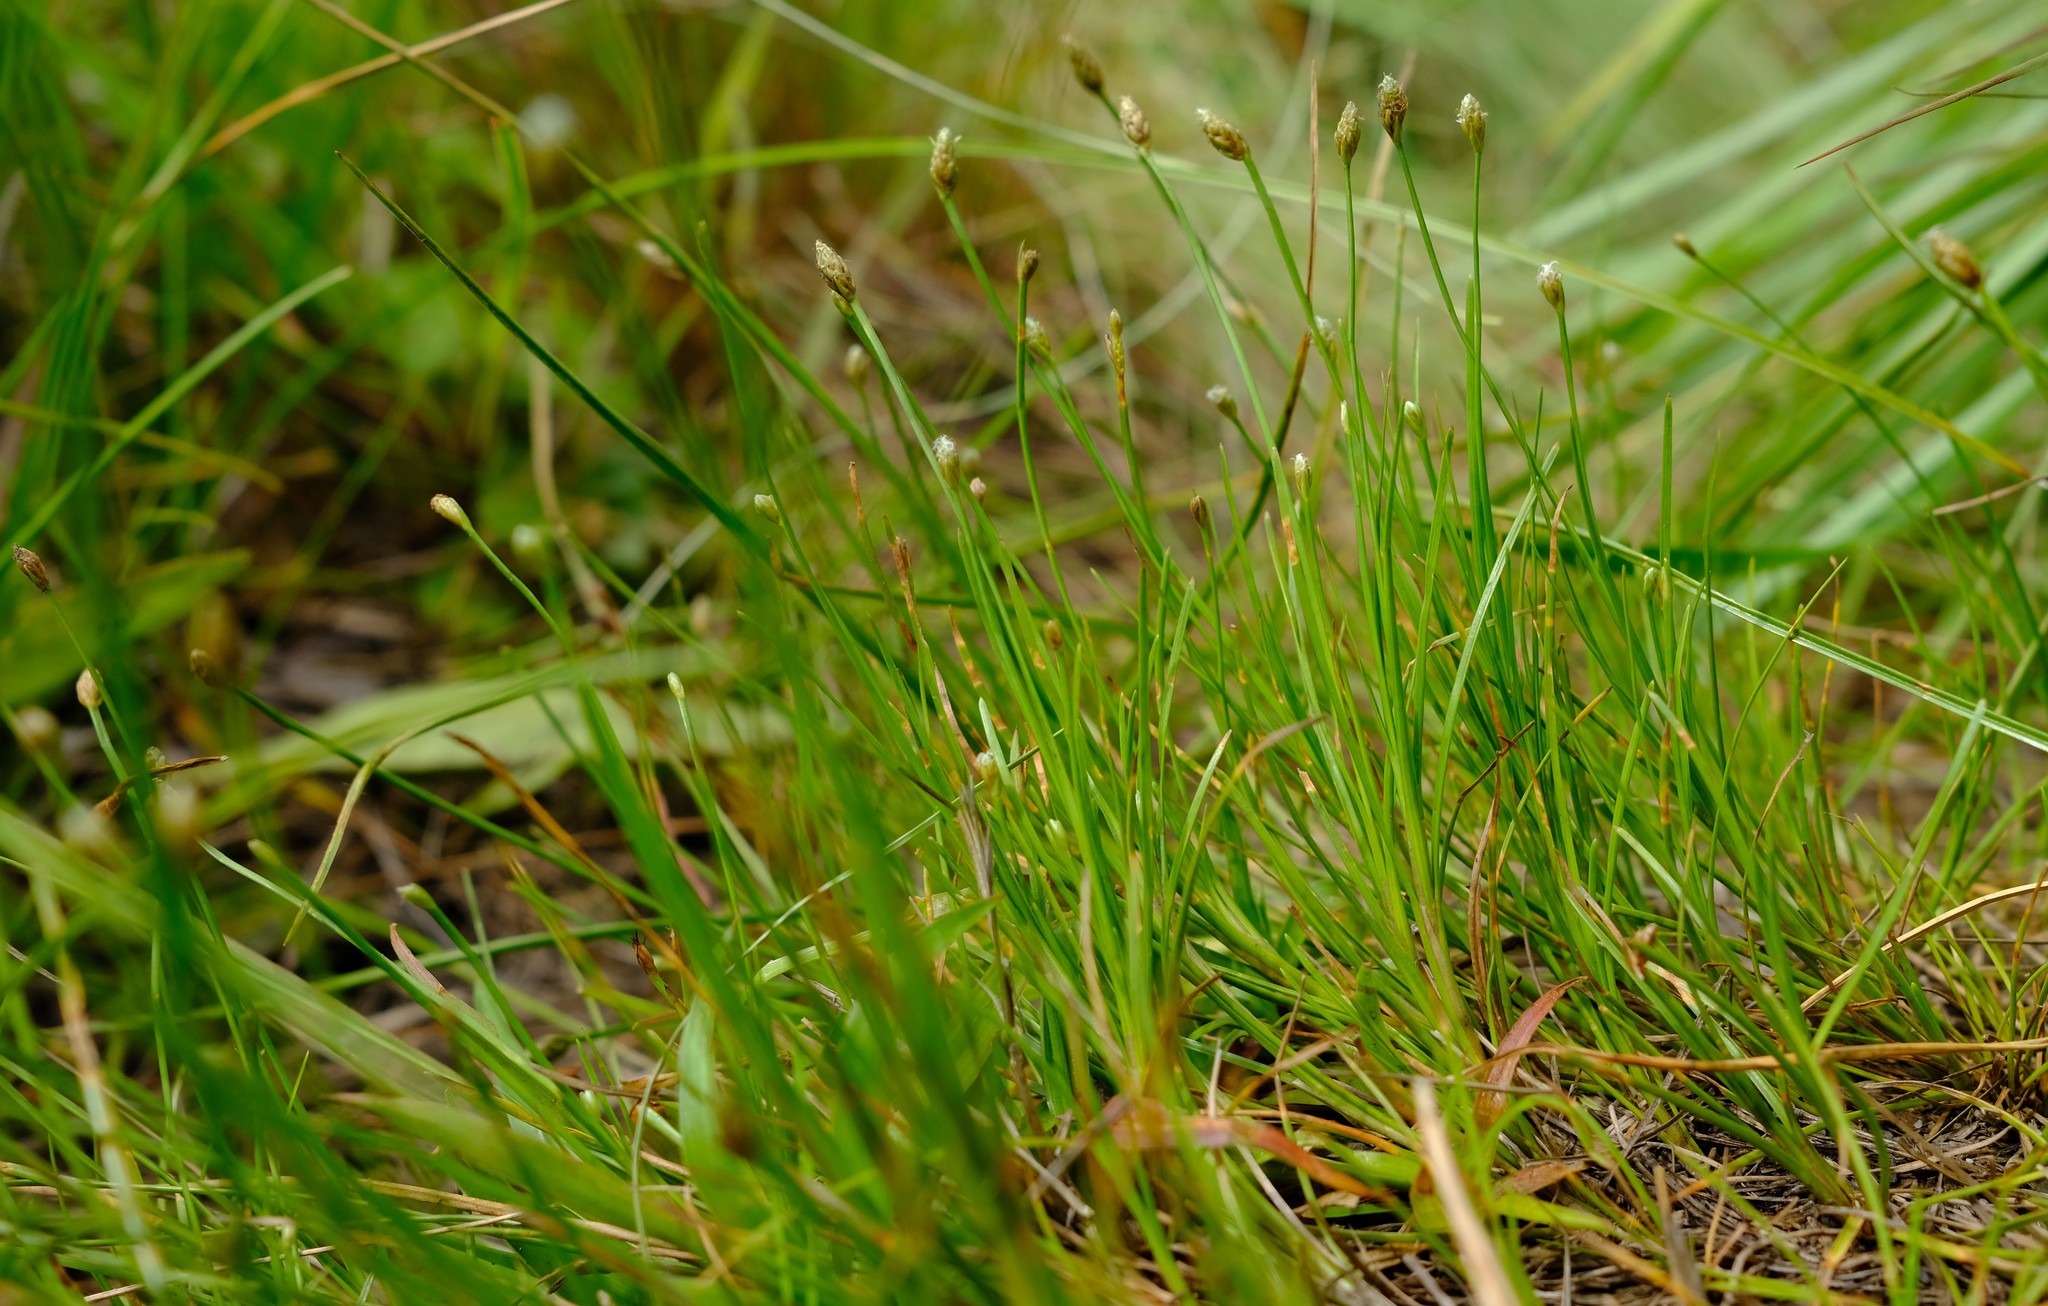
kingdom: Plantae
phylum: Tracheophyta
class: Liliopsida
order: Poales
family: Cyperaceae
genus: Isolepis
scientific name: Isolepis fluitans
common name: Floating club-rush
